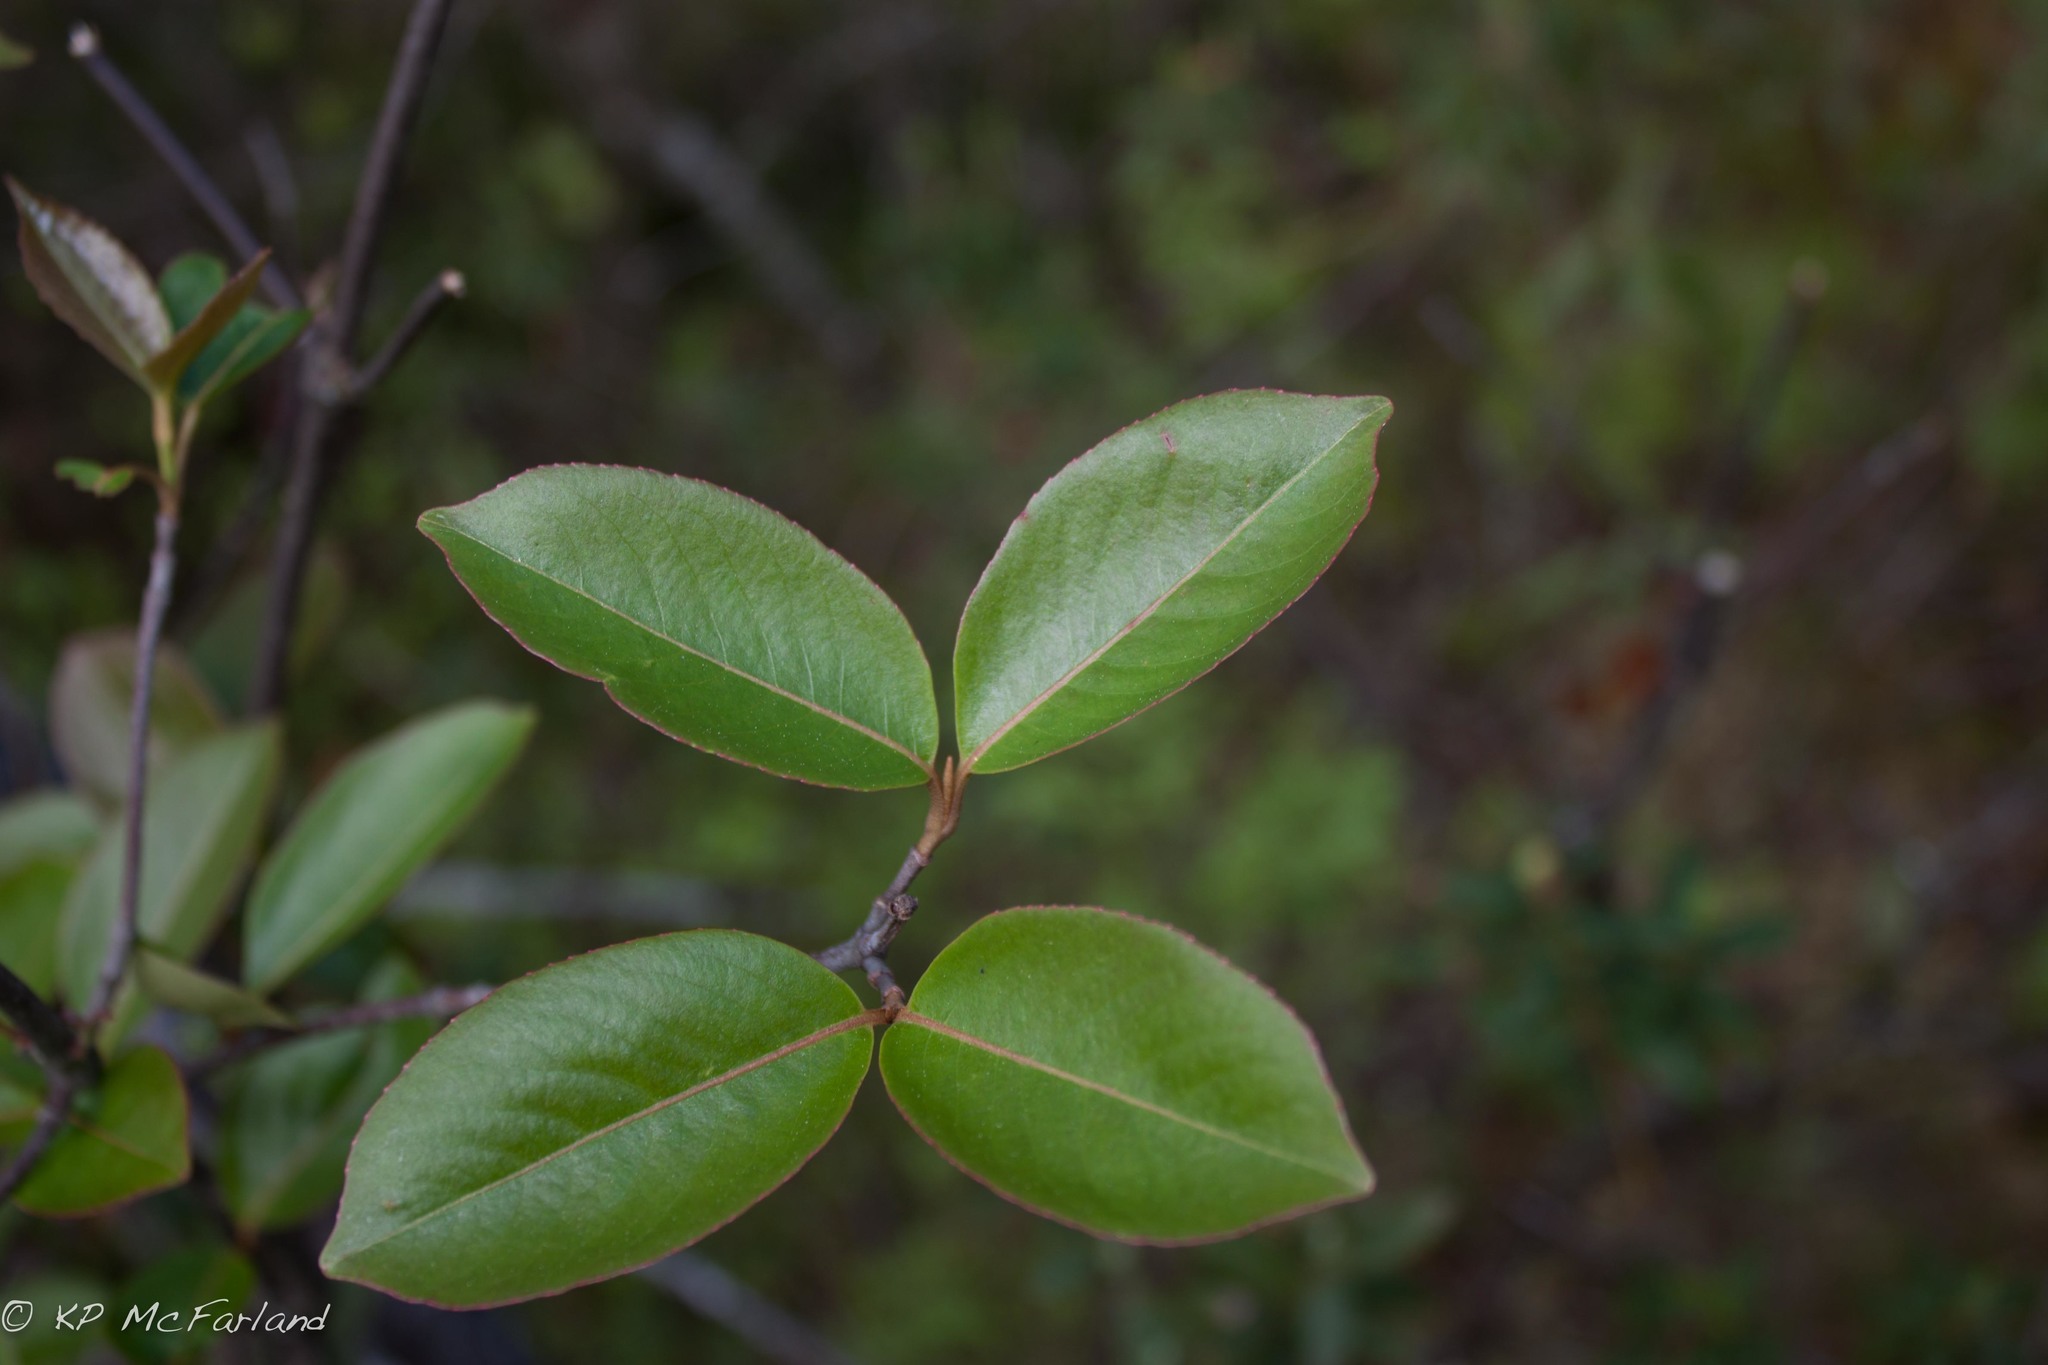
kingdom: Plantae
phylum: Tracheophyta
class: Magnoliopsida
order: Dipsacales
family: Viburnaceae
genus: Viburnum
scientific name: Viburnum cassinoides
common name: Swamp haw
